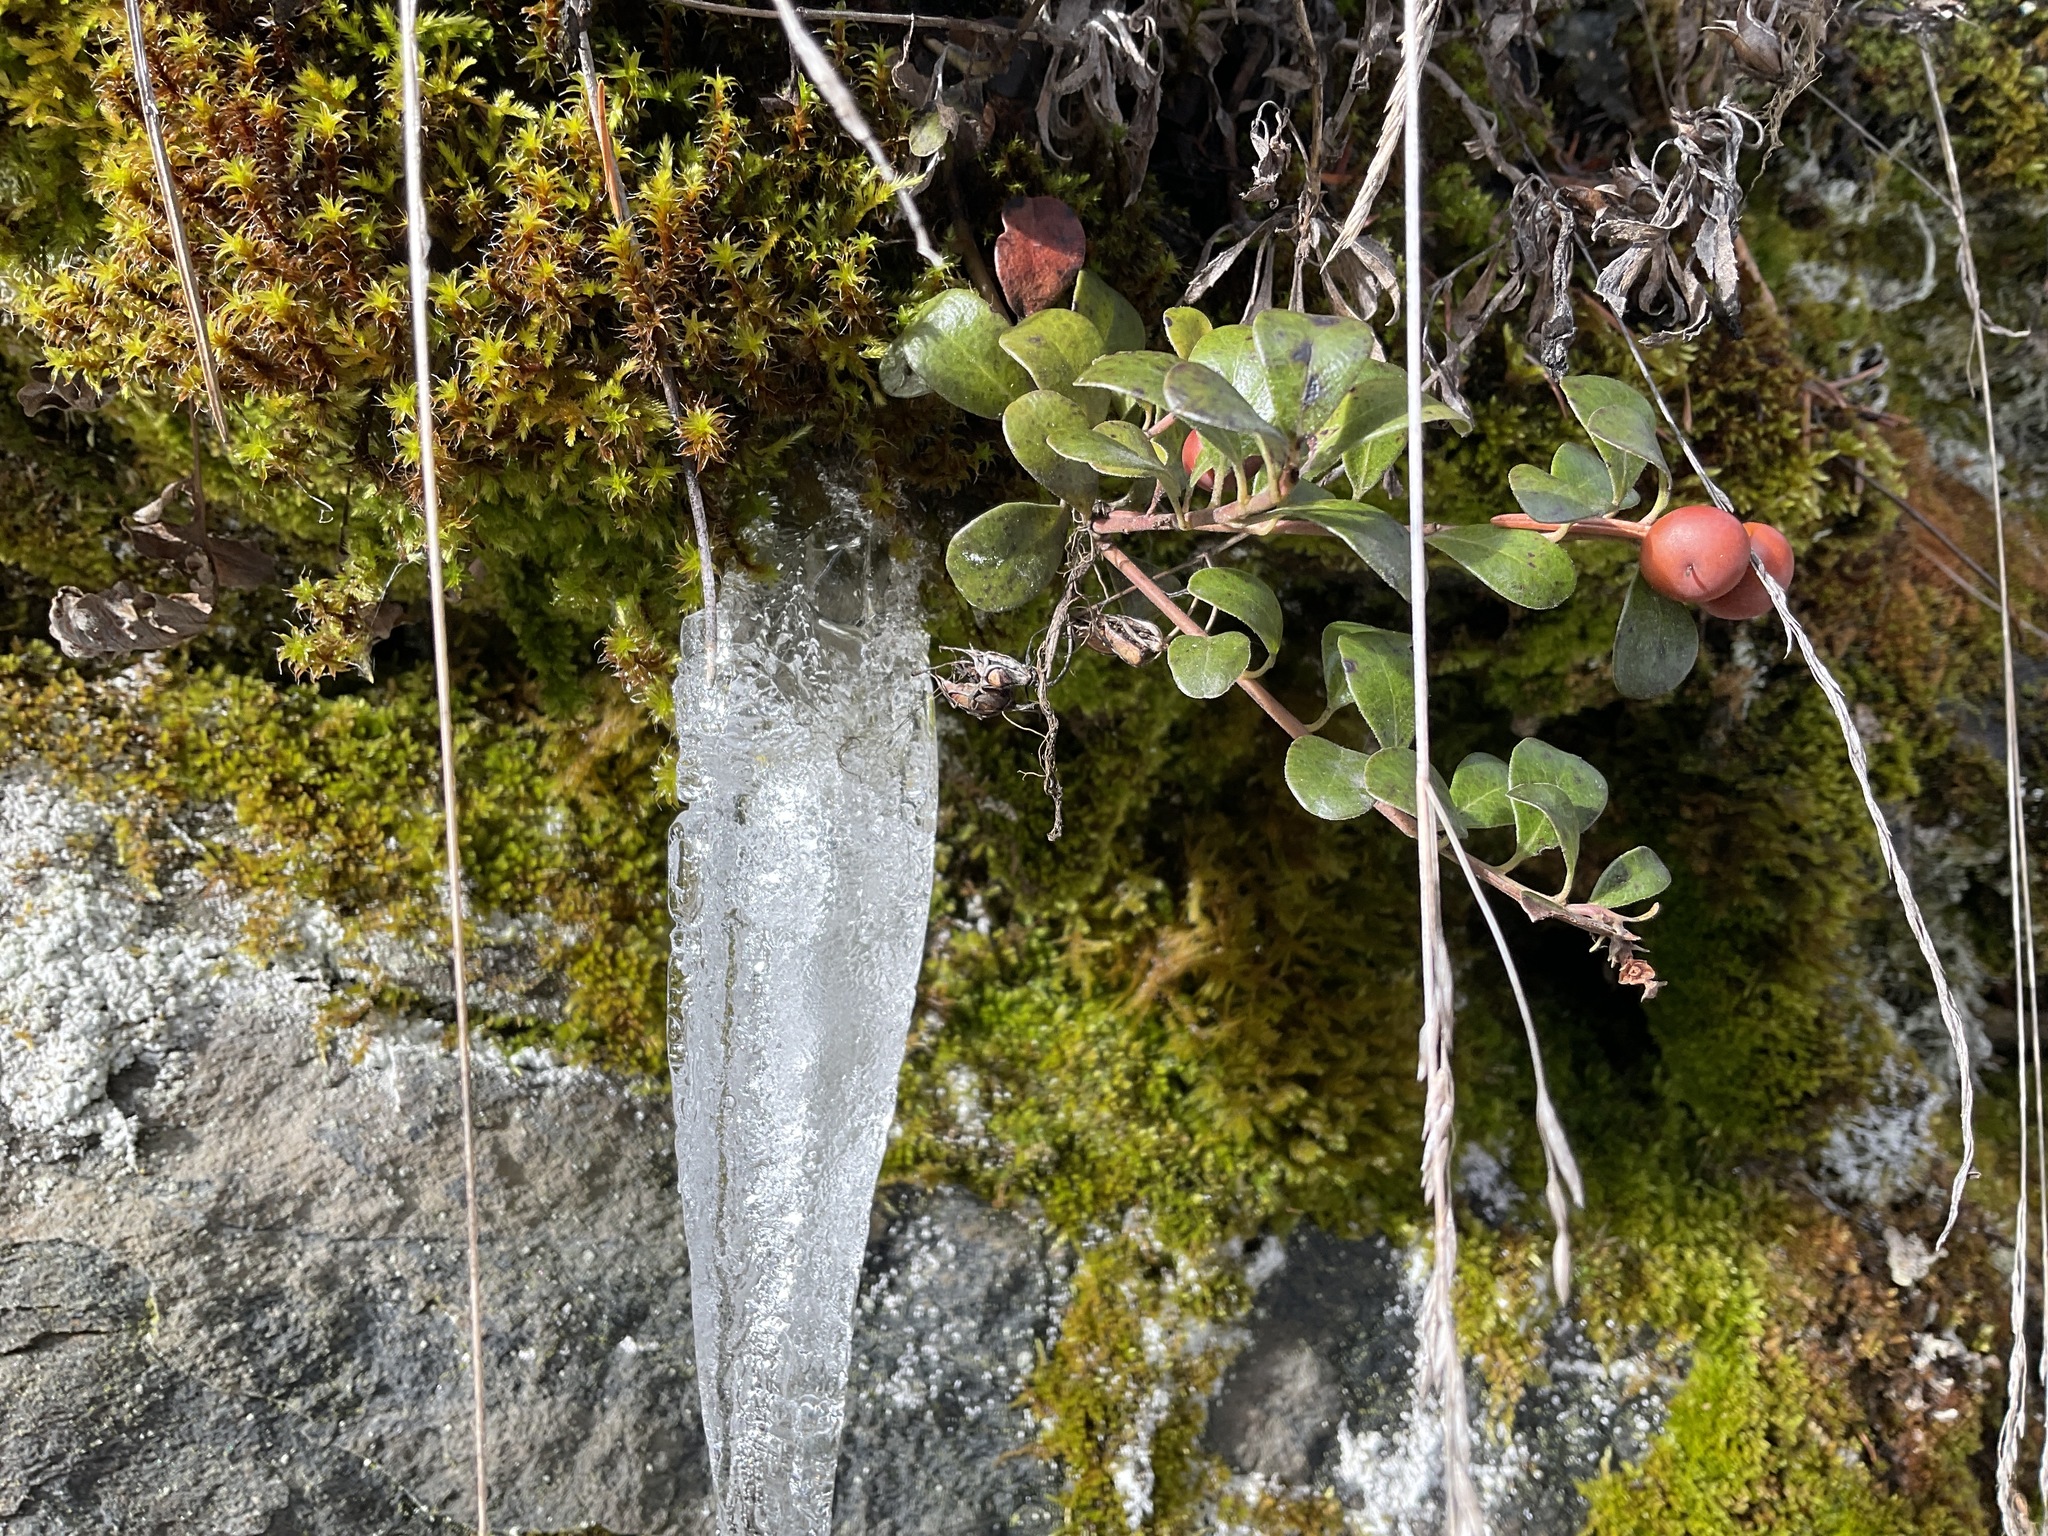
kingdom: Plantae
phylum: Tracheophyta
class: Magnoliopsida
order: Ericales
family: Ericaceae
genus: Arctostaphylos
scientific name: Arctostaphylos uva-ursi
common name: Bearberry
